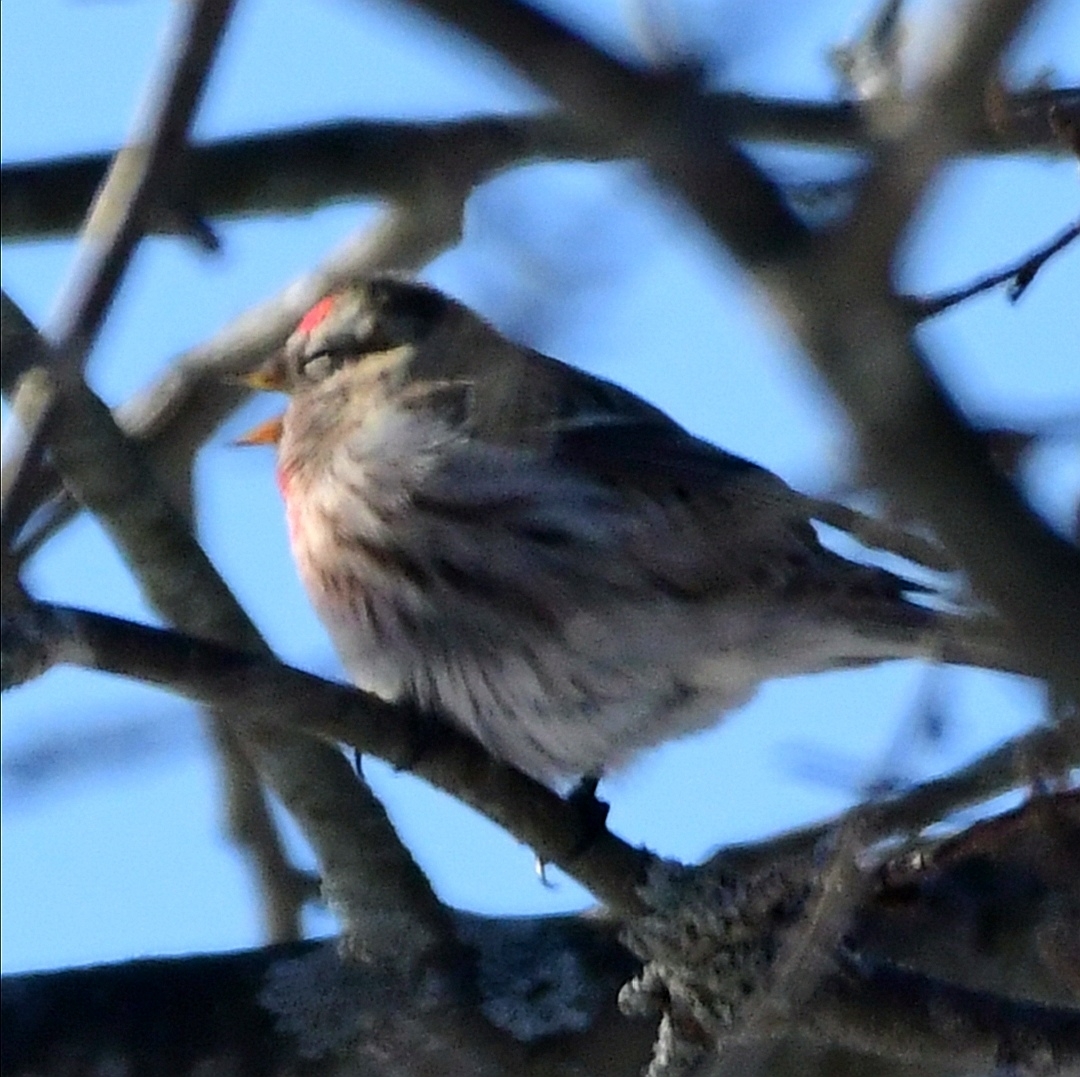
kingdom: Animalia
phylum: Chordata
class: Aves
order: Passeriformes
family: Fringillidae
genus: Acanthis
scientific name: Acanthis flammea
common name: Common redpoll
